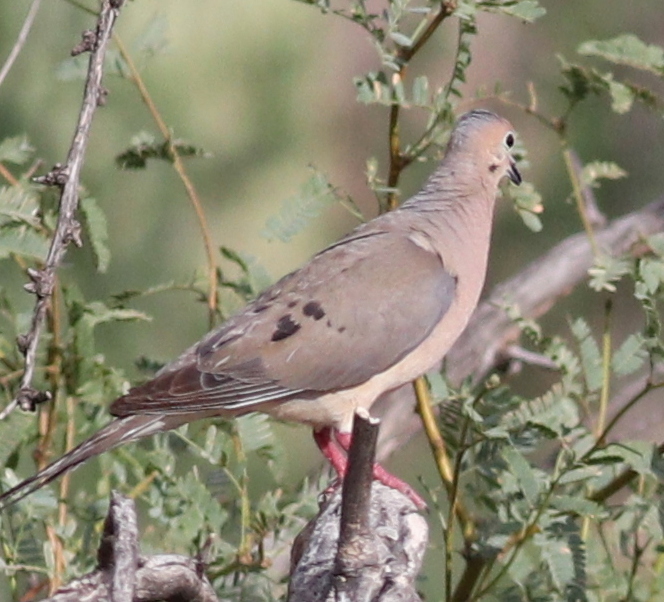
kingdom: Animalia
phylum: Chordata
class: Aves
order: Columbiformes
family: Columbidae
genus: Zenaida
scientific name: Zenaida macroura
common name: Mourning dove
